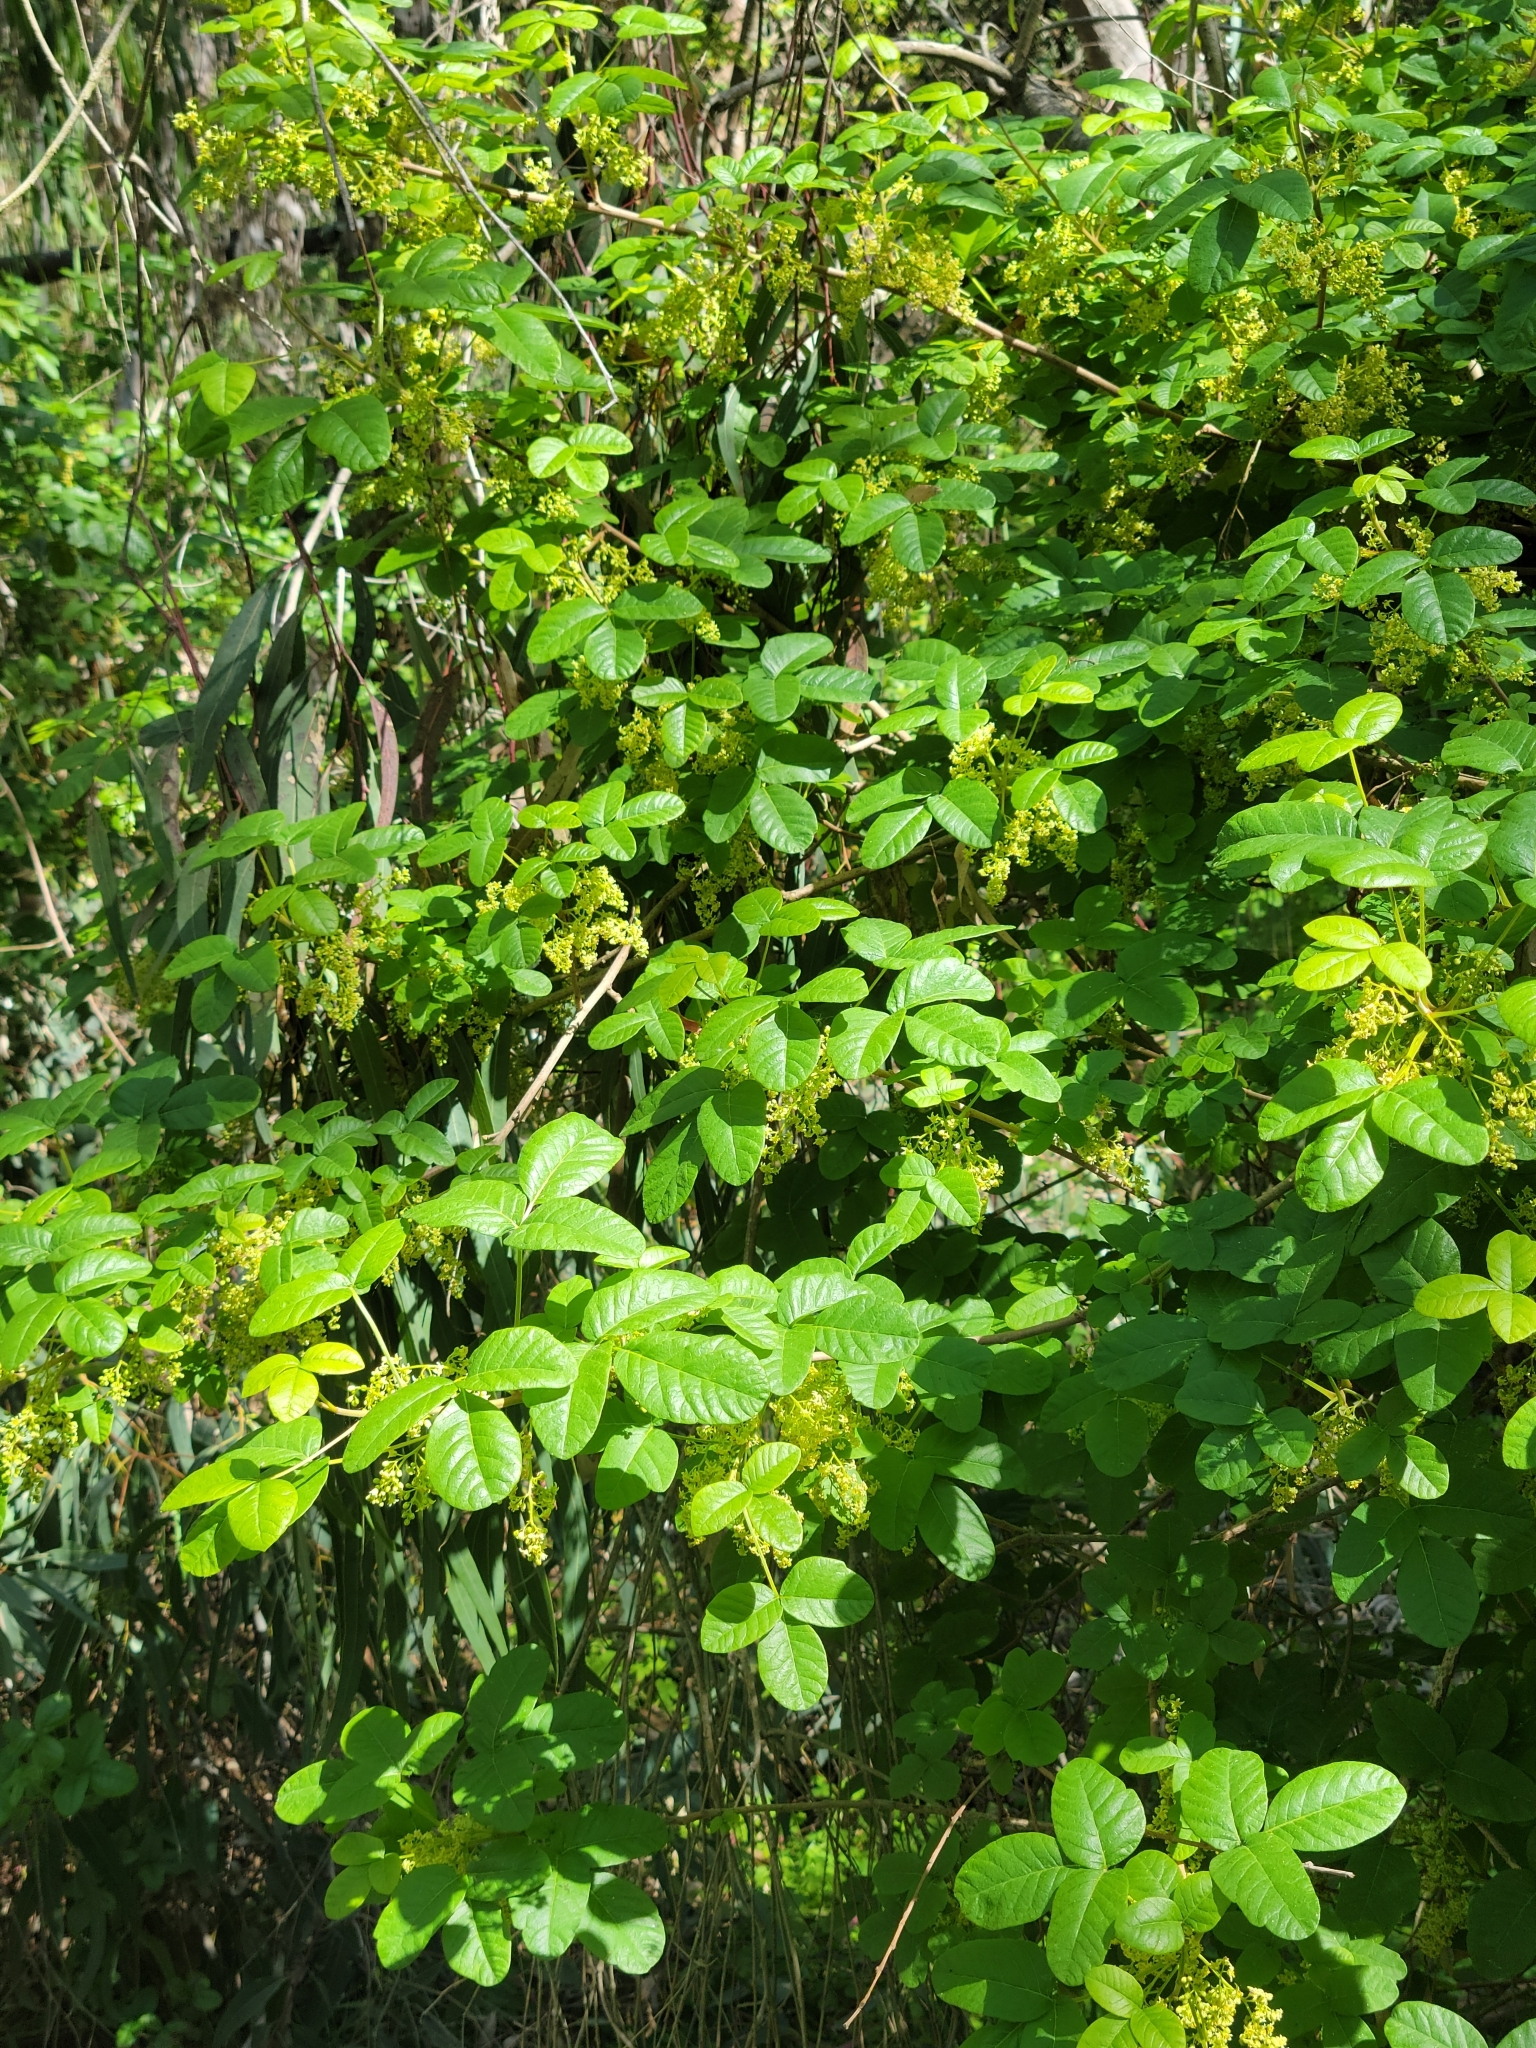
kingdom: Plantae
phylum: Tracheophyta
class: Magnoliopsida
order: Sapindales
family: Anacardiaceae
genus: Toxicodendron
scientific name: Toxicodendron diversilobum
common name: Pacific poison-oak
